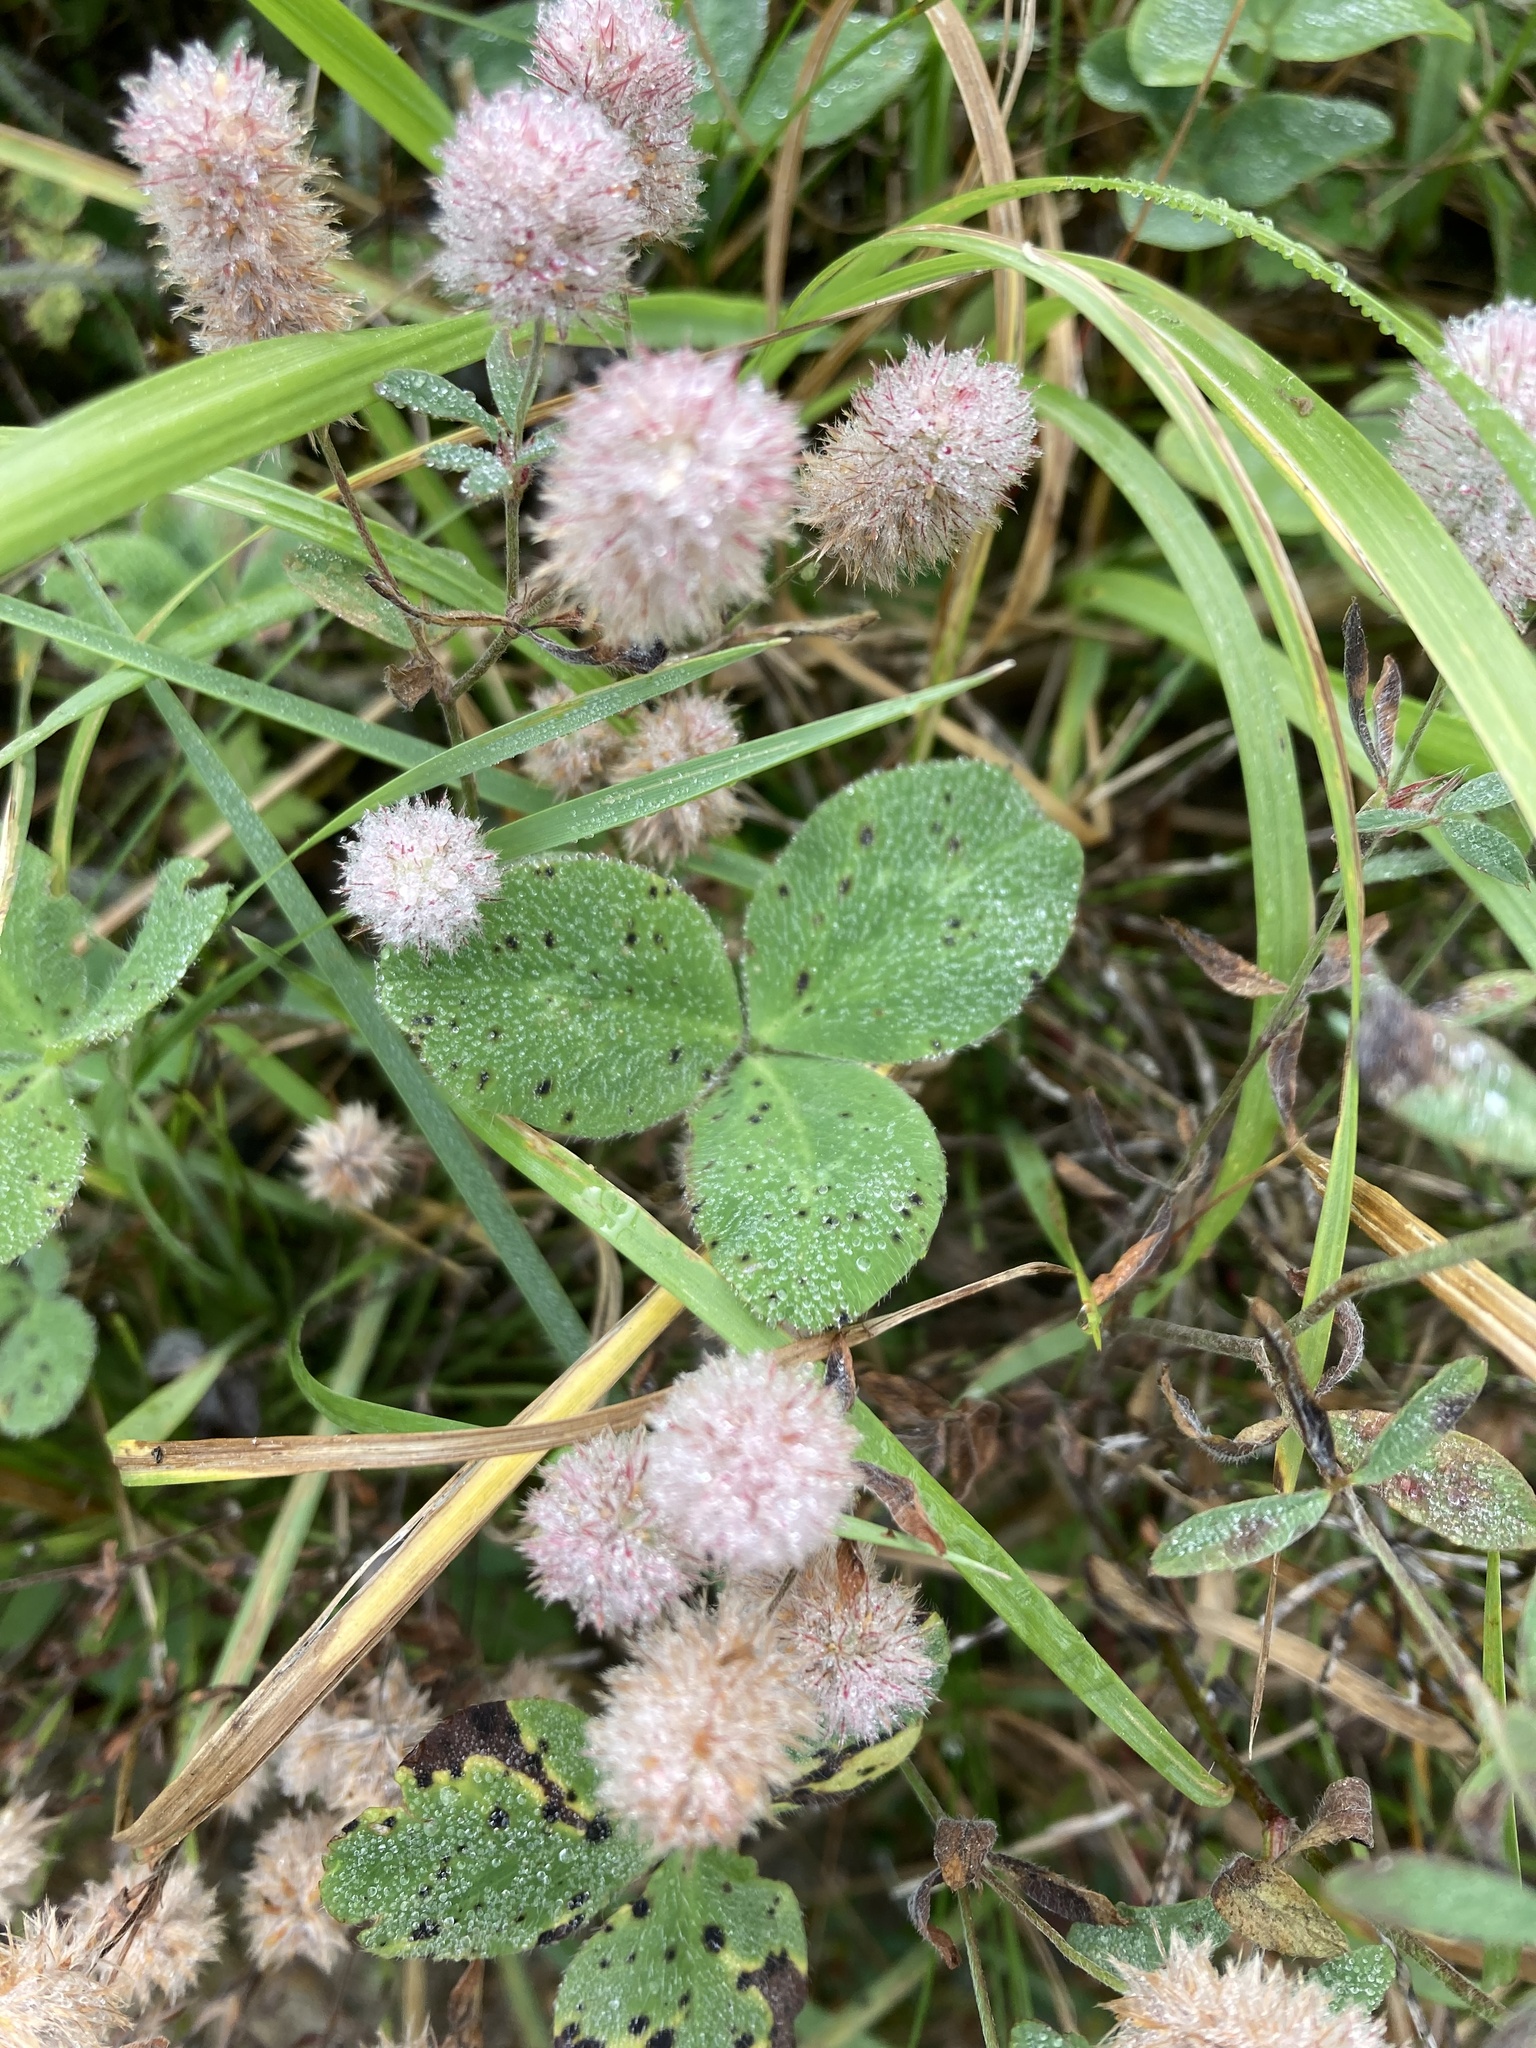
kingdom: Plantae
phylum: Tracheophyta
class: Magnoliopsida
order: Fabales
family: Fabaceae
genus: Trifolium
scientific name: Trifolium arvense
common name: Hare's-foot clover
